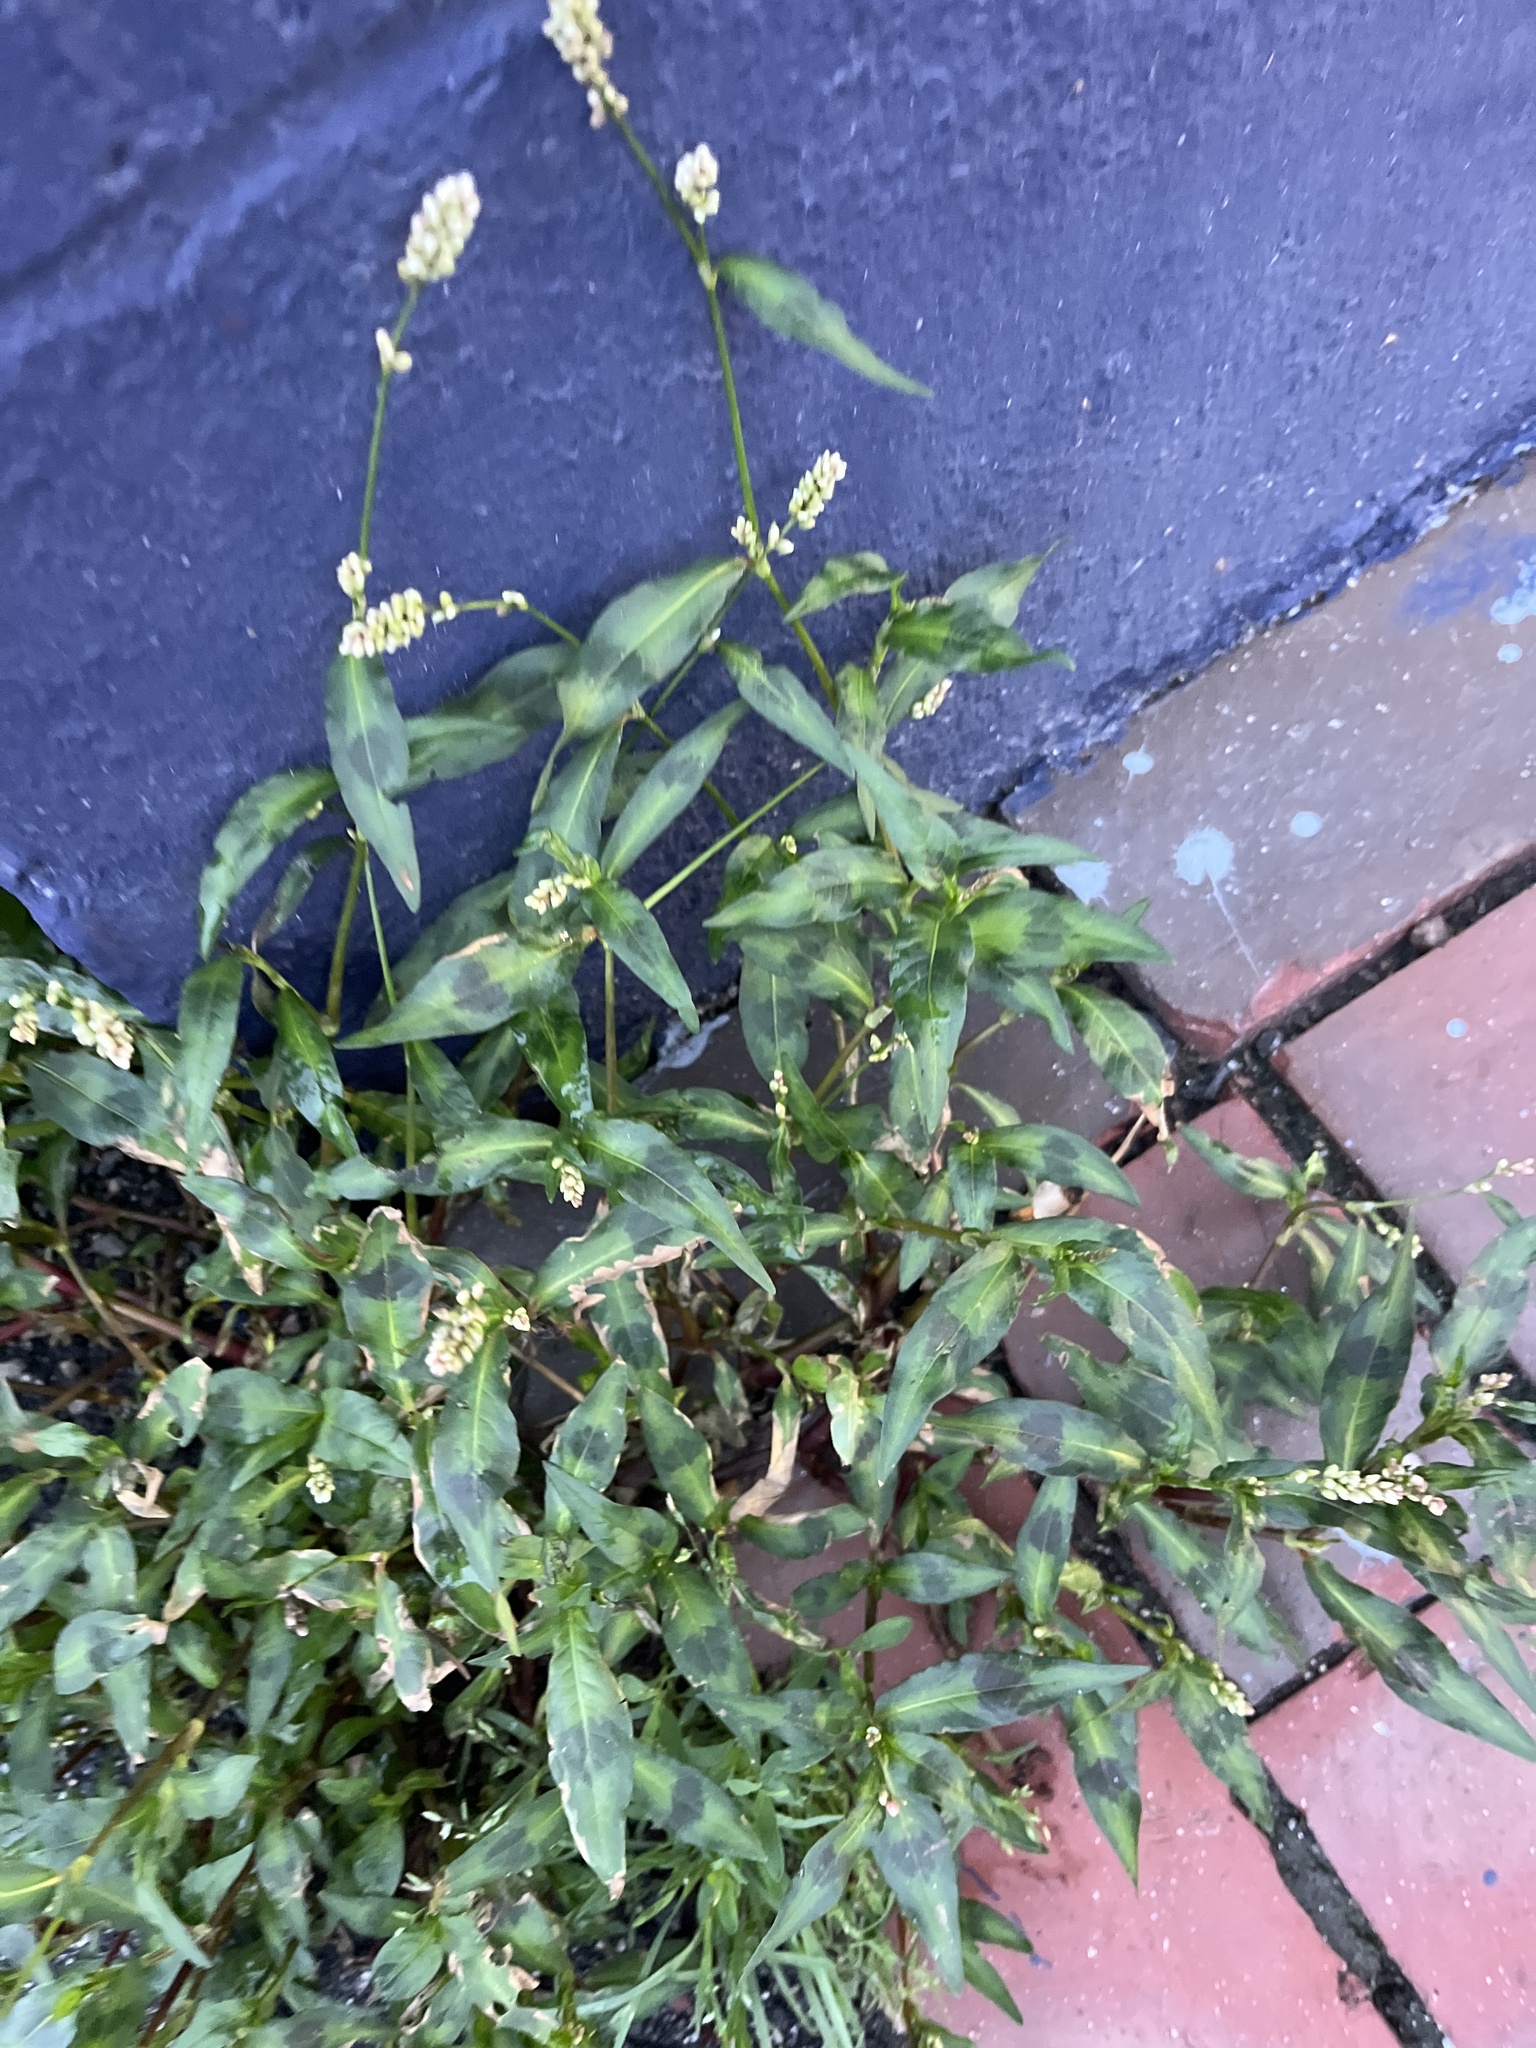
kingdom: Plantae
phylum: Tracheophyta
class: Magnoliopsida
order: Caryophyllales
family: Polygonaceae
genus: Persicaria
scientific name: Persicaria maculosa
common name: Redshank
